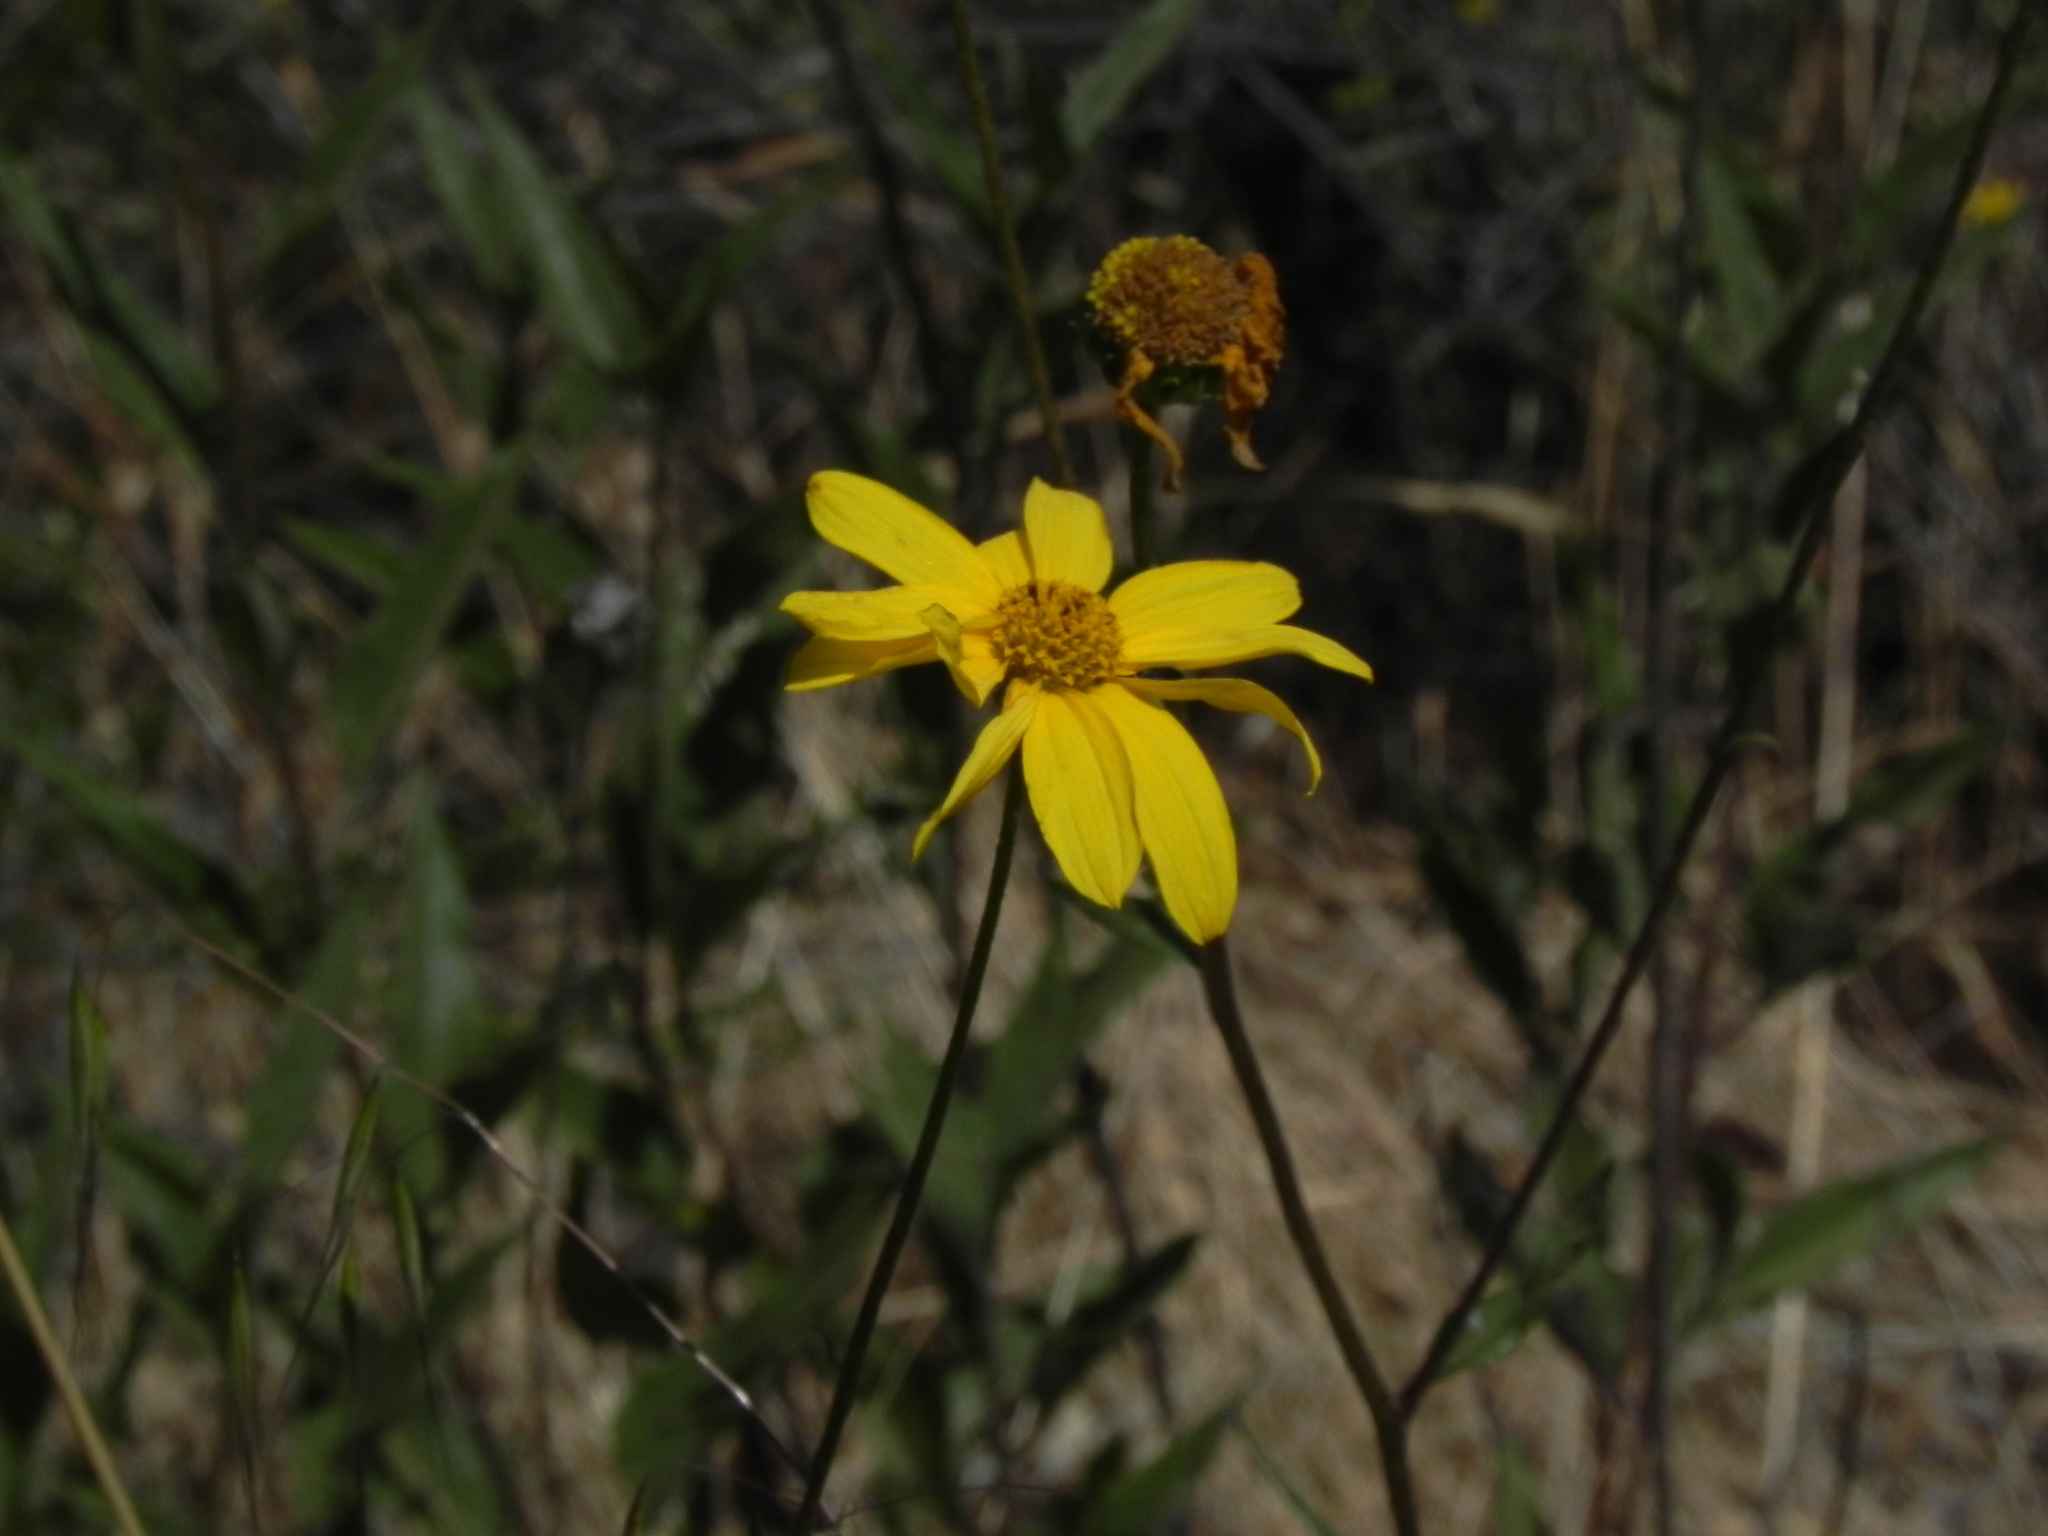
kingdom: Plantae
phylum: Tracheophyta
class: Magnoliopsida
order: Asterales
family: Asteraceae
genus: Helianthus
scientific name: Helianthus gracilentus
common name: Slender sunflower
